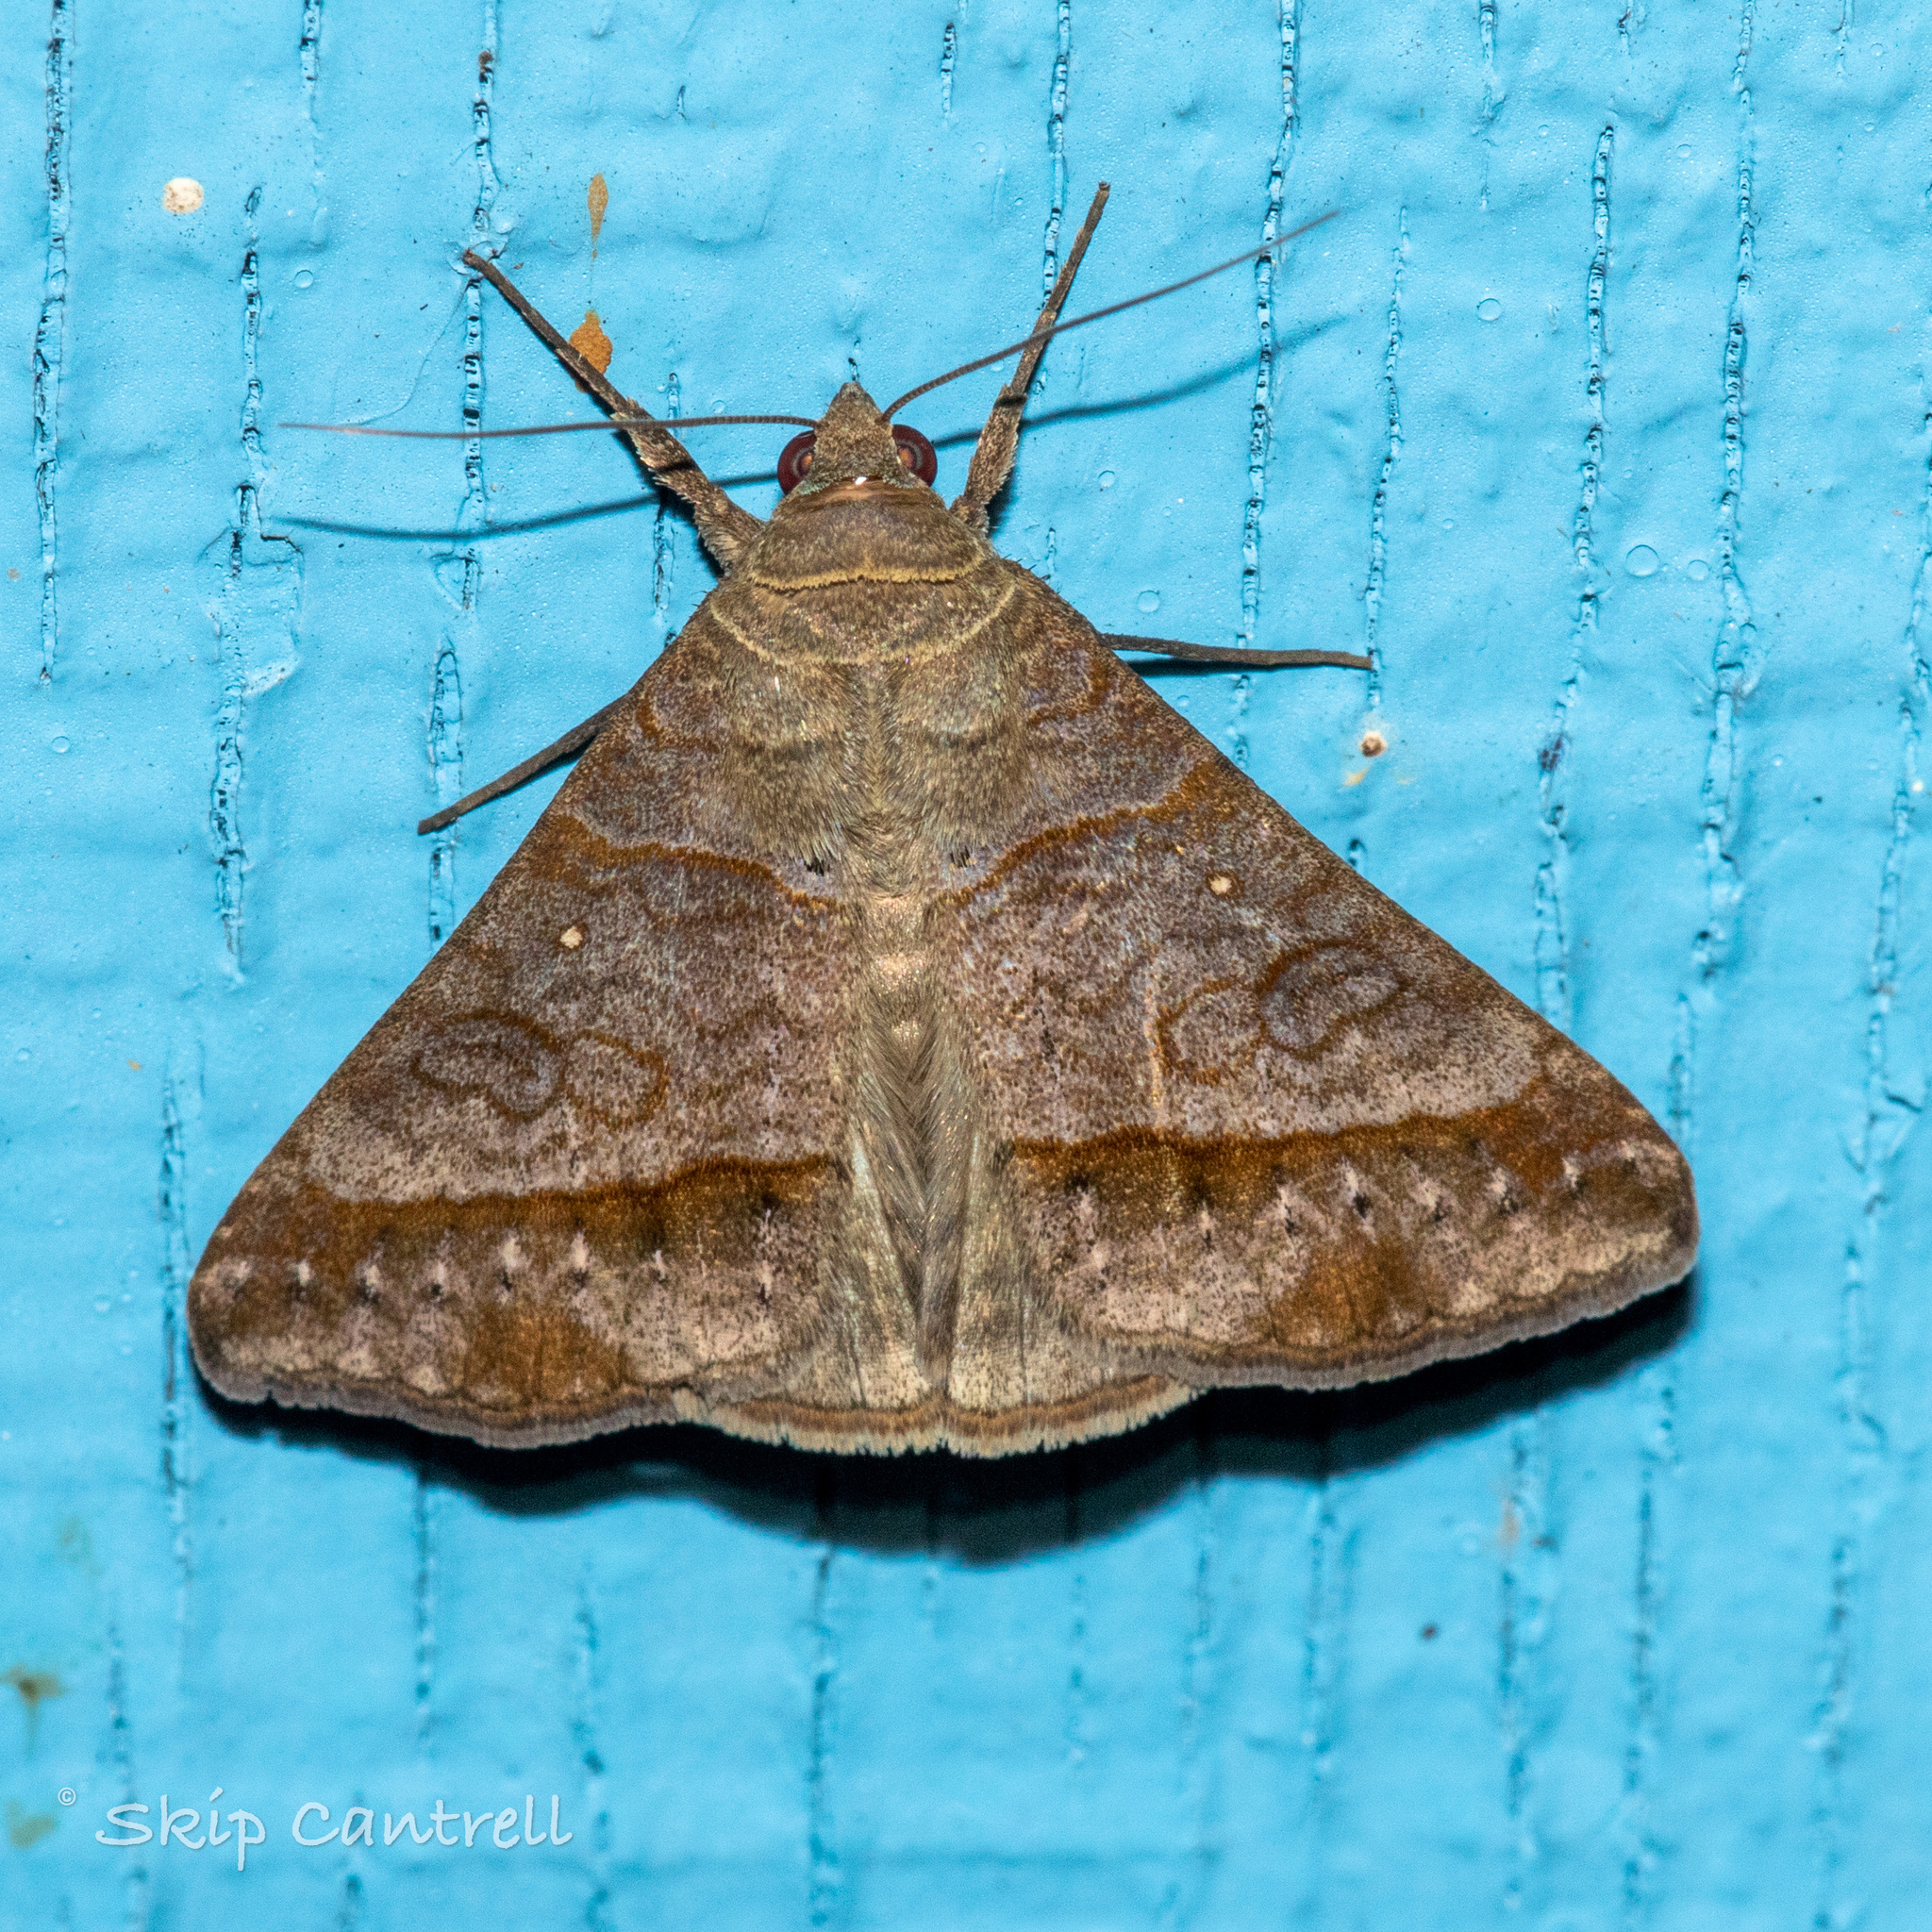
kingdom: Animalia
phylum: Arthropoda
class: Insecta
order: Lepidoptera
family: Erebidae
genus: Mocis
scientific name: Mocis latipes
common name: Striped grass looper
